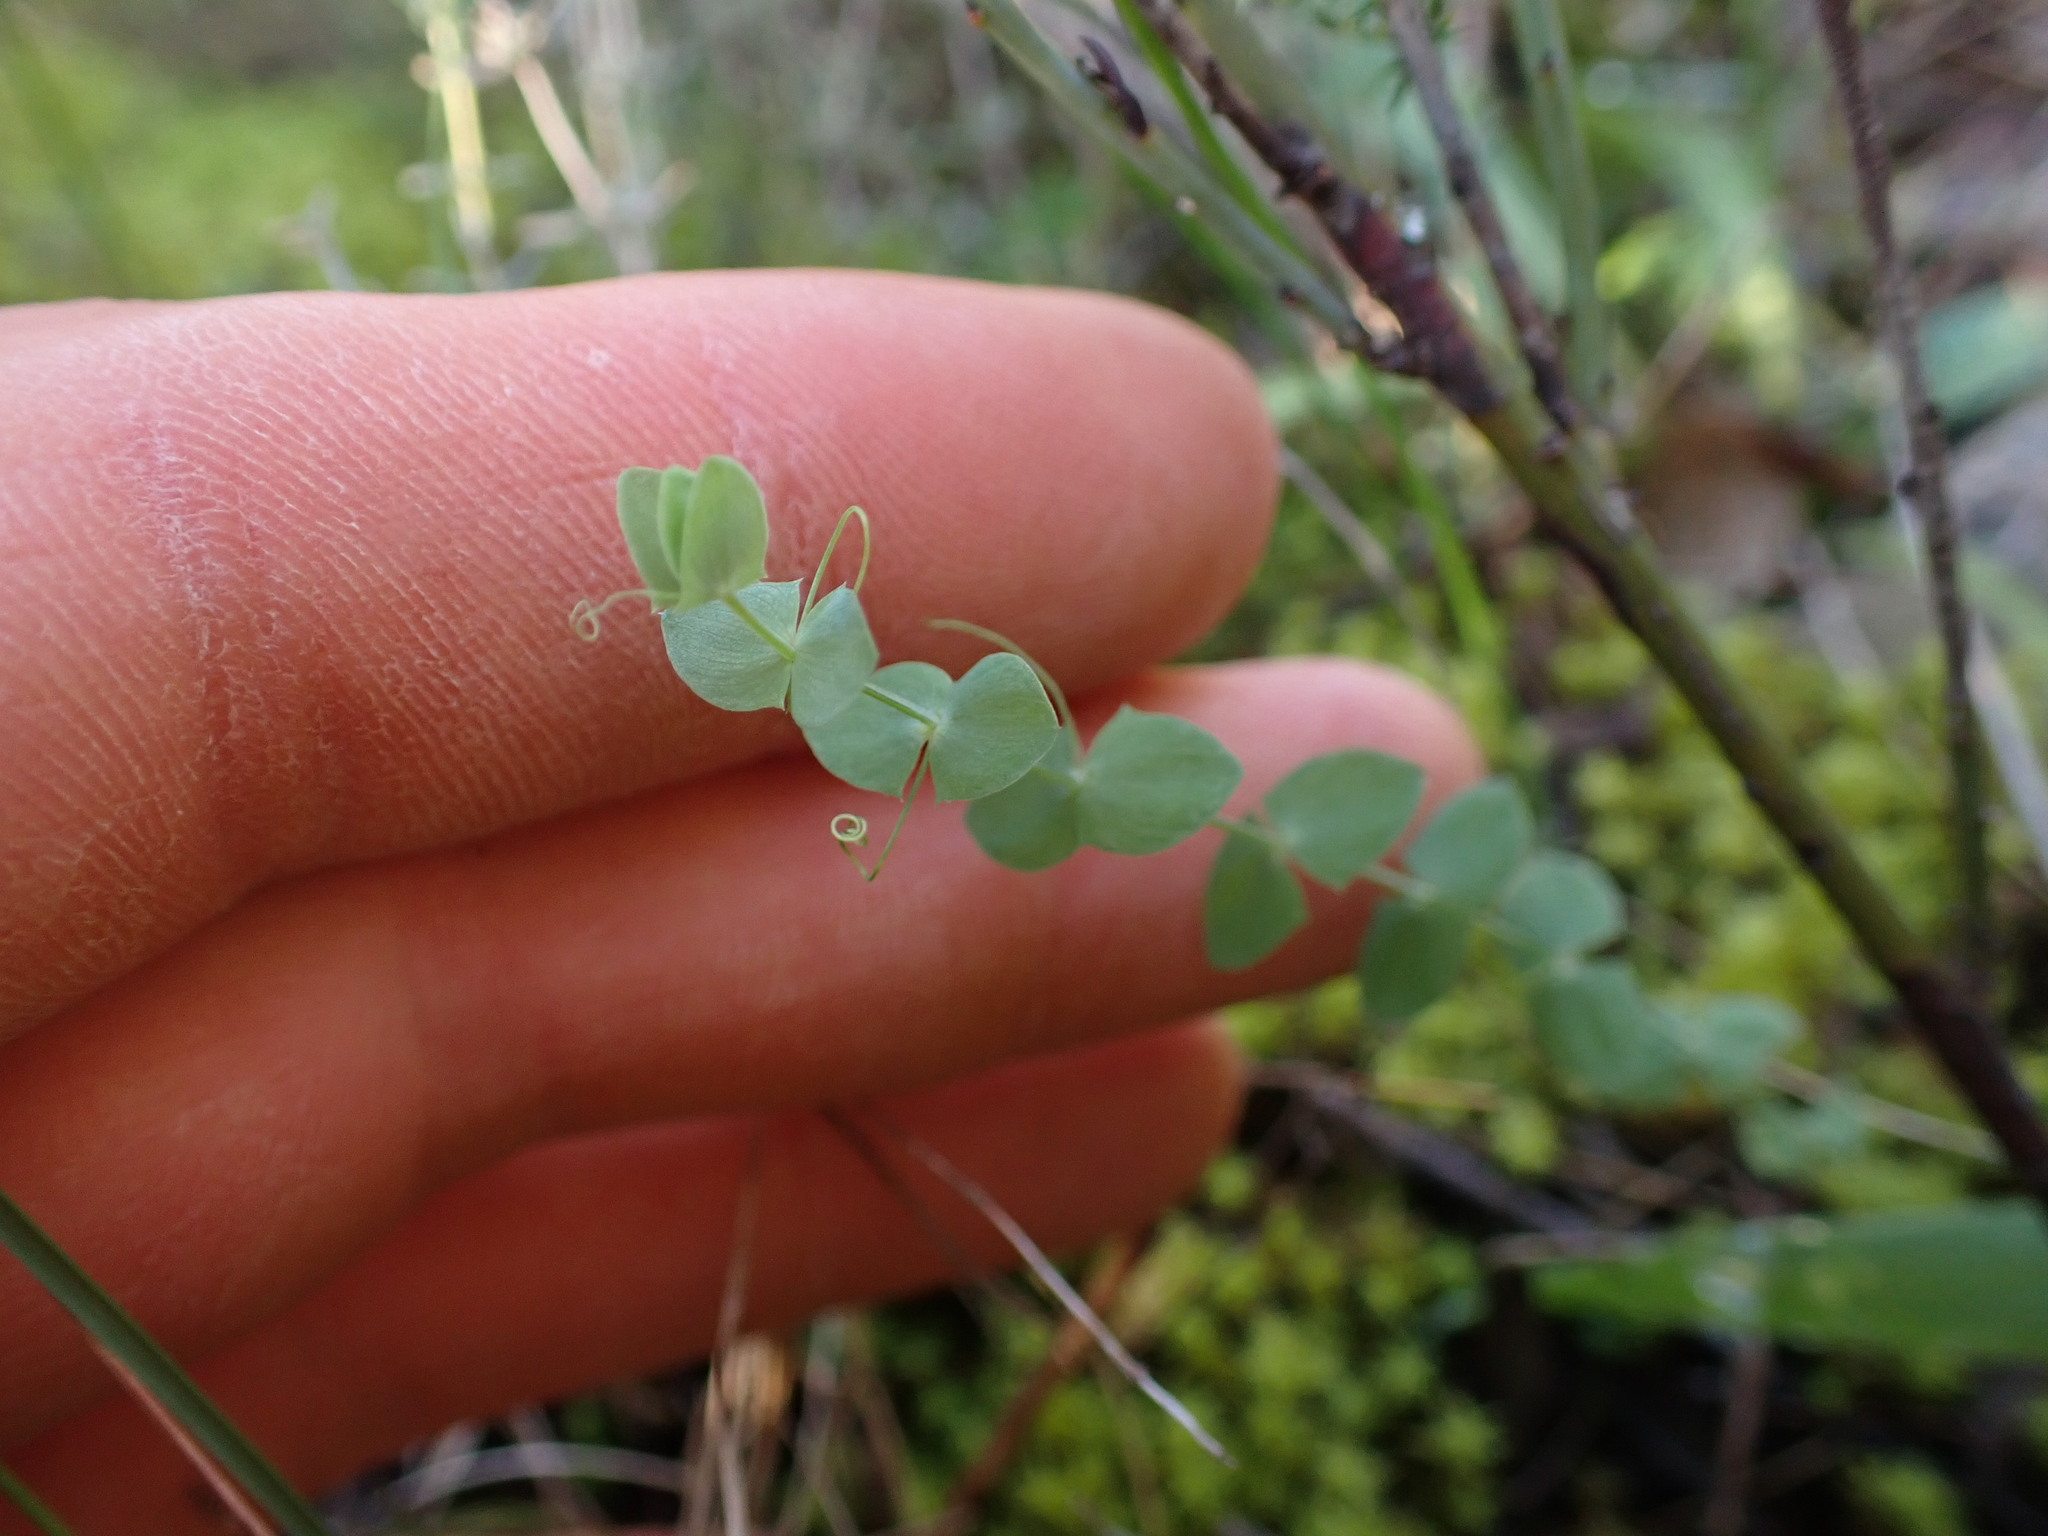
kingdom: Plantae
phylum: Tracheophyta
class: Magnoliopsida
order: Fabales
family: Fabaceae
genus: Lathyrus
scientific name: Lathyrus aphaca
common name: Yellow vetchling
